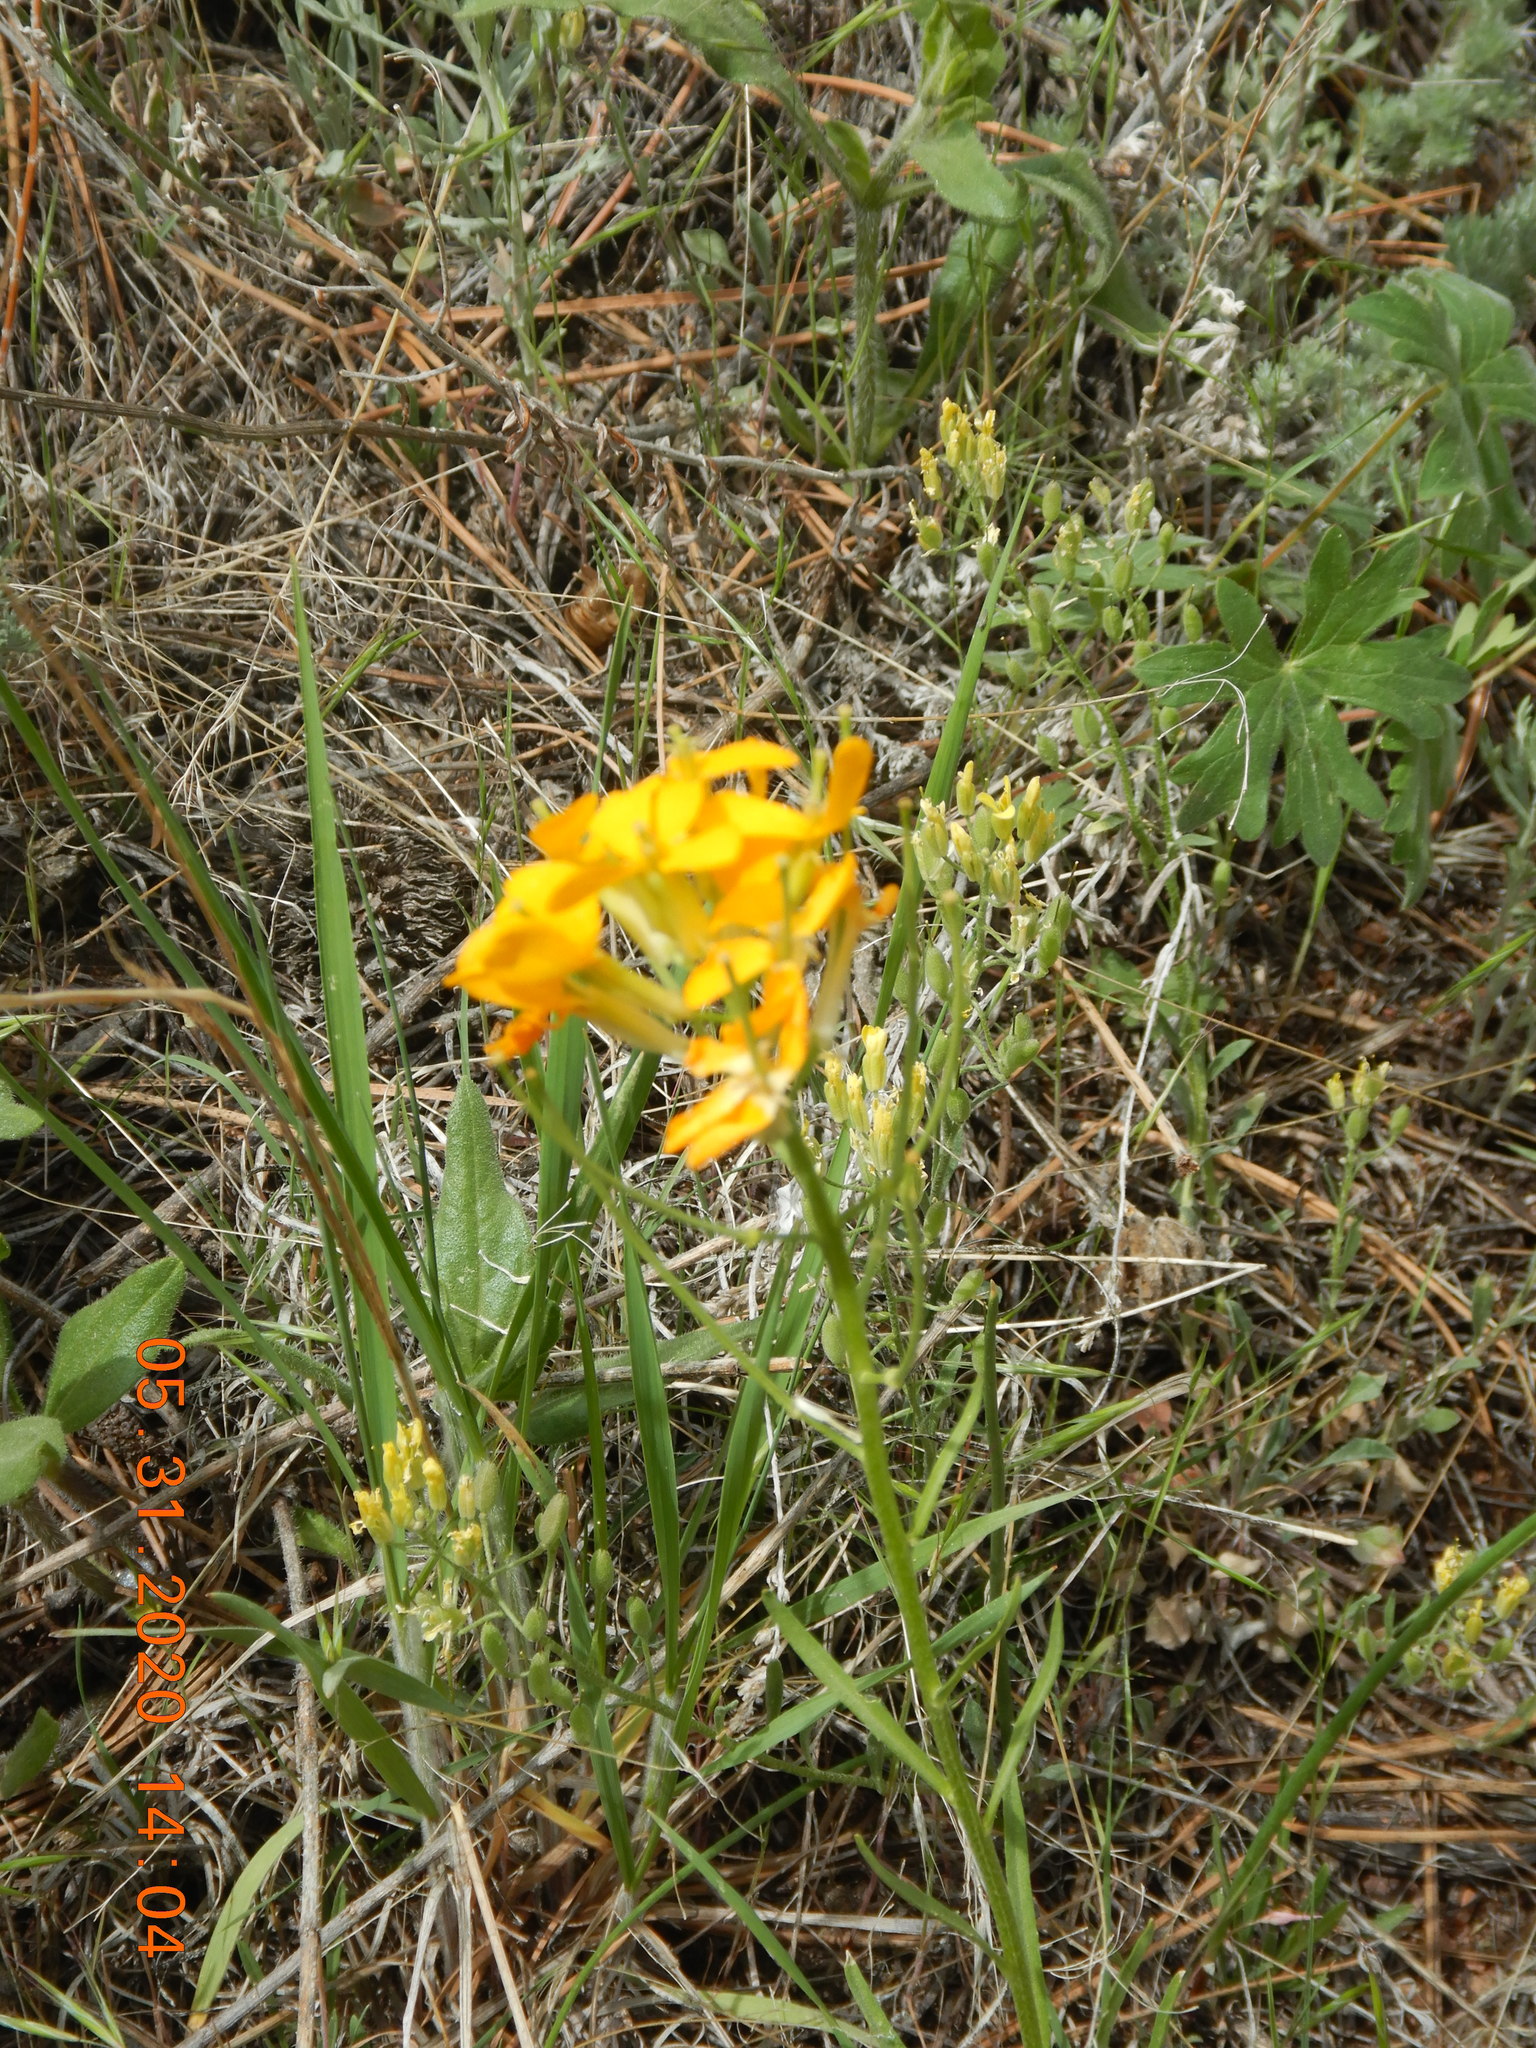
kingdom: Plantae
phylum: Tracheophyta
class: Magnoliopsida
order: Brassicales
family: Brassicaceae
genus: Erysimum
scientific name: Erysimum capitatum
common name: Western wallflower
